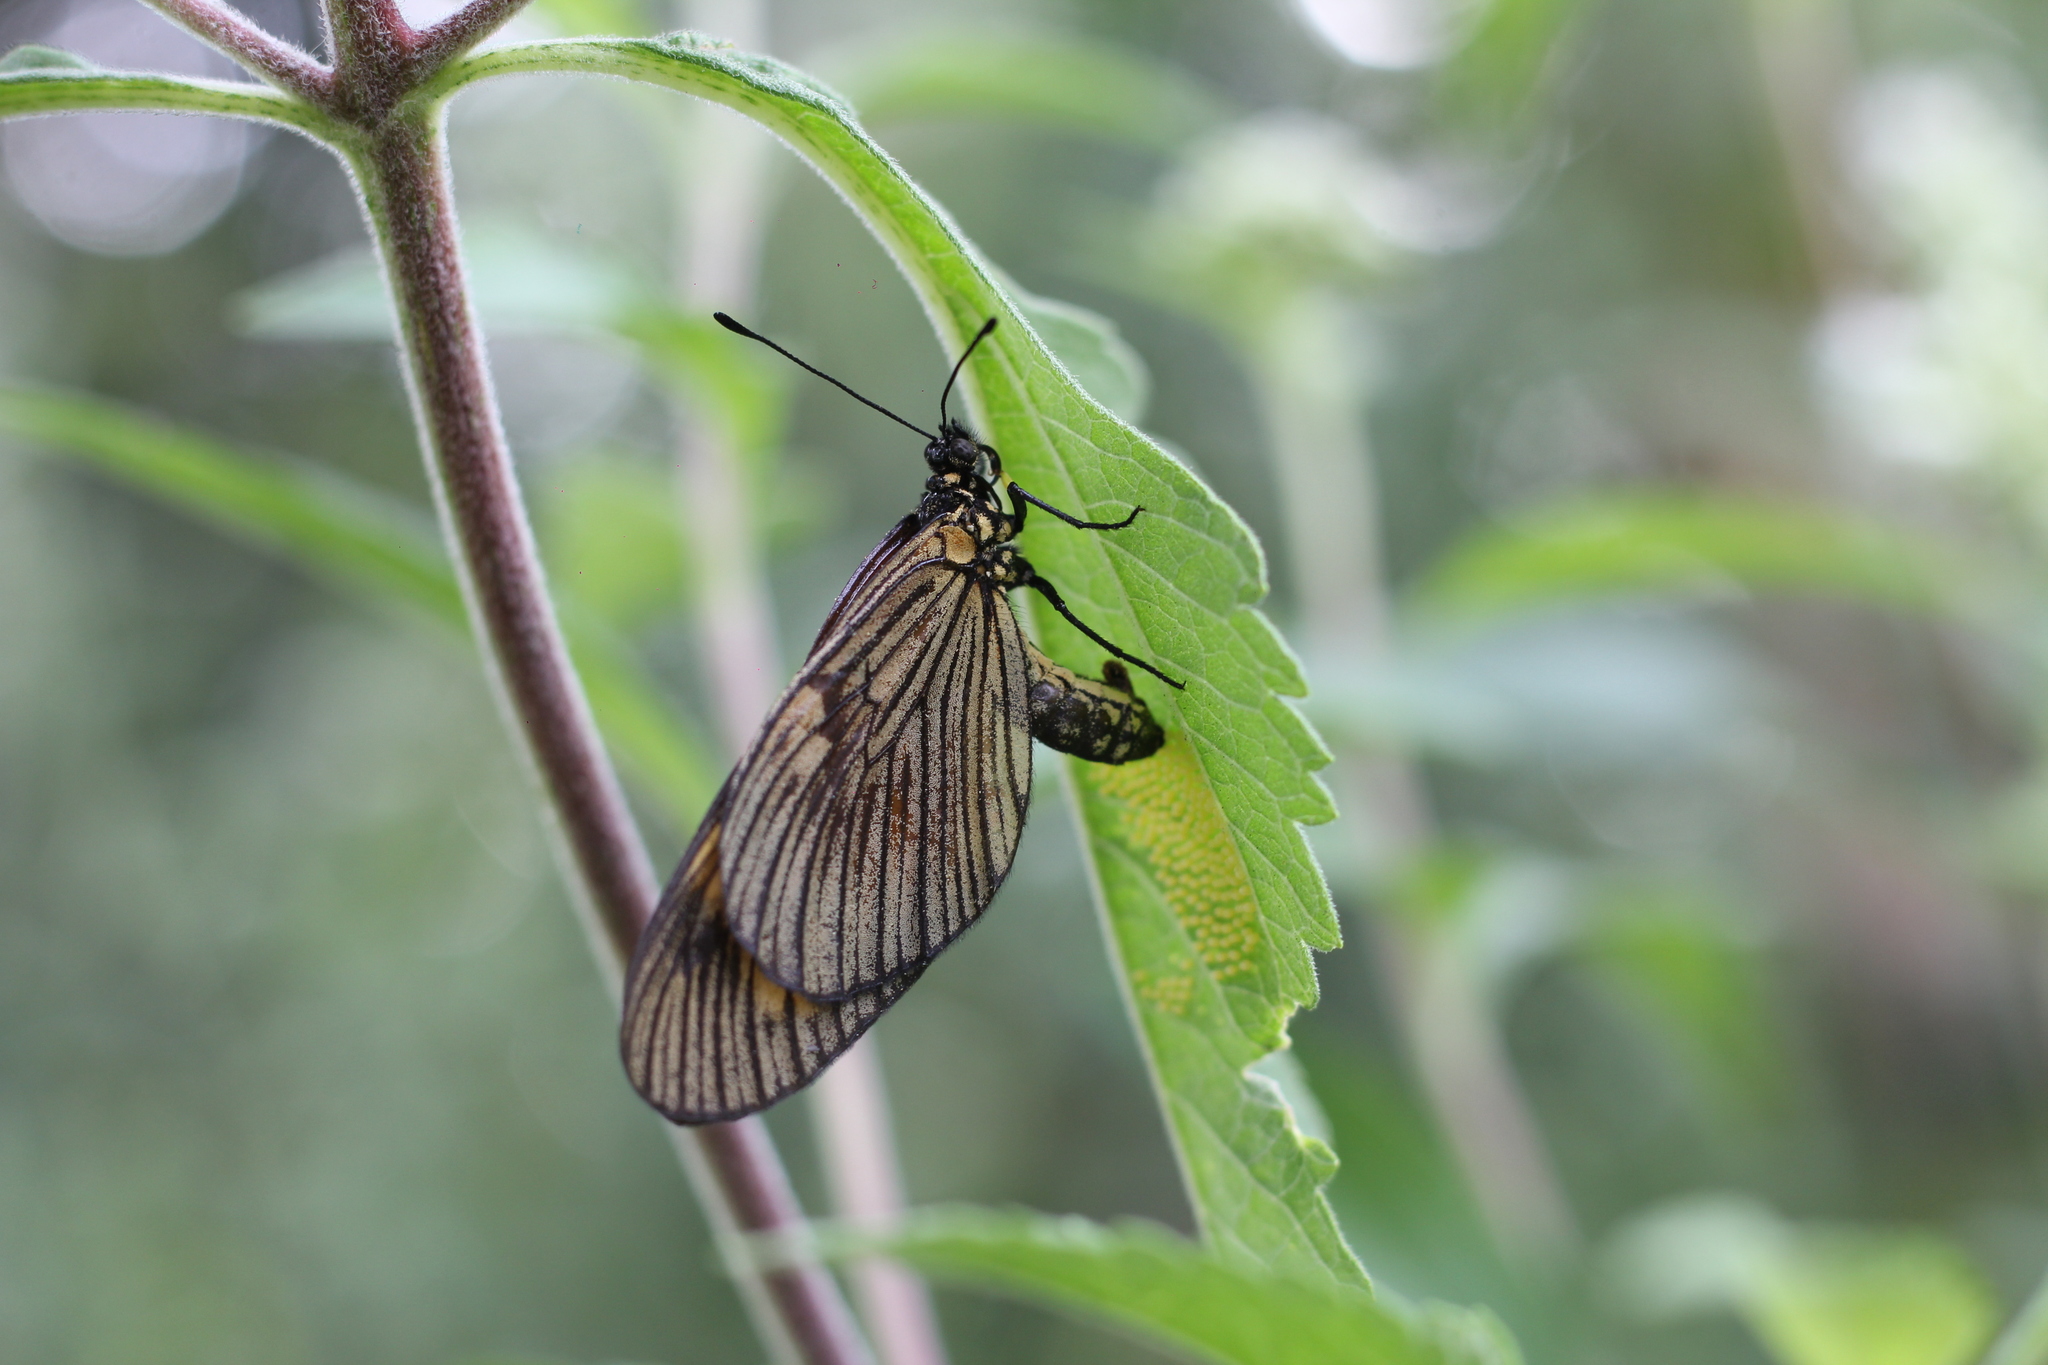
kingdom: Animalia
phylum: Arthropoda
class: Insecta
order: Lepidoptera
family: Nymphalidae
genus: Actinote
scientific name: Actinote pellenea
